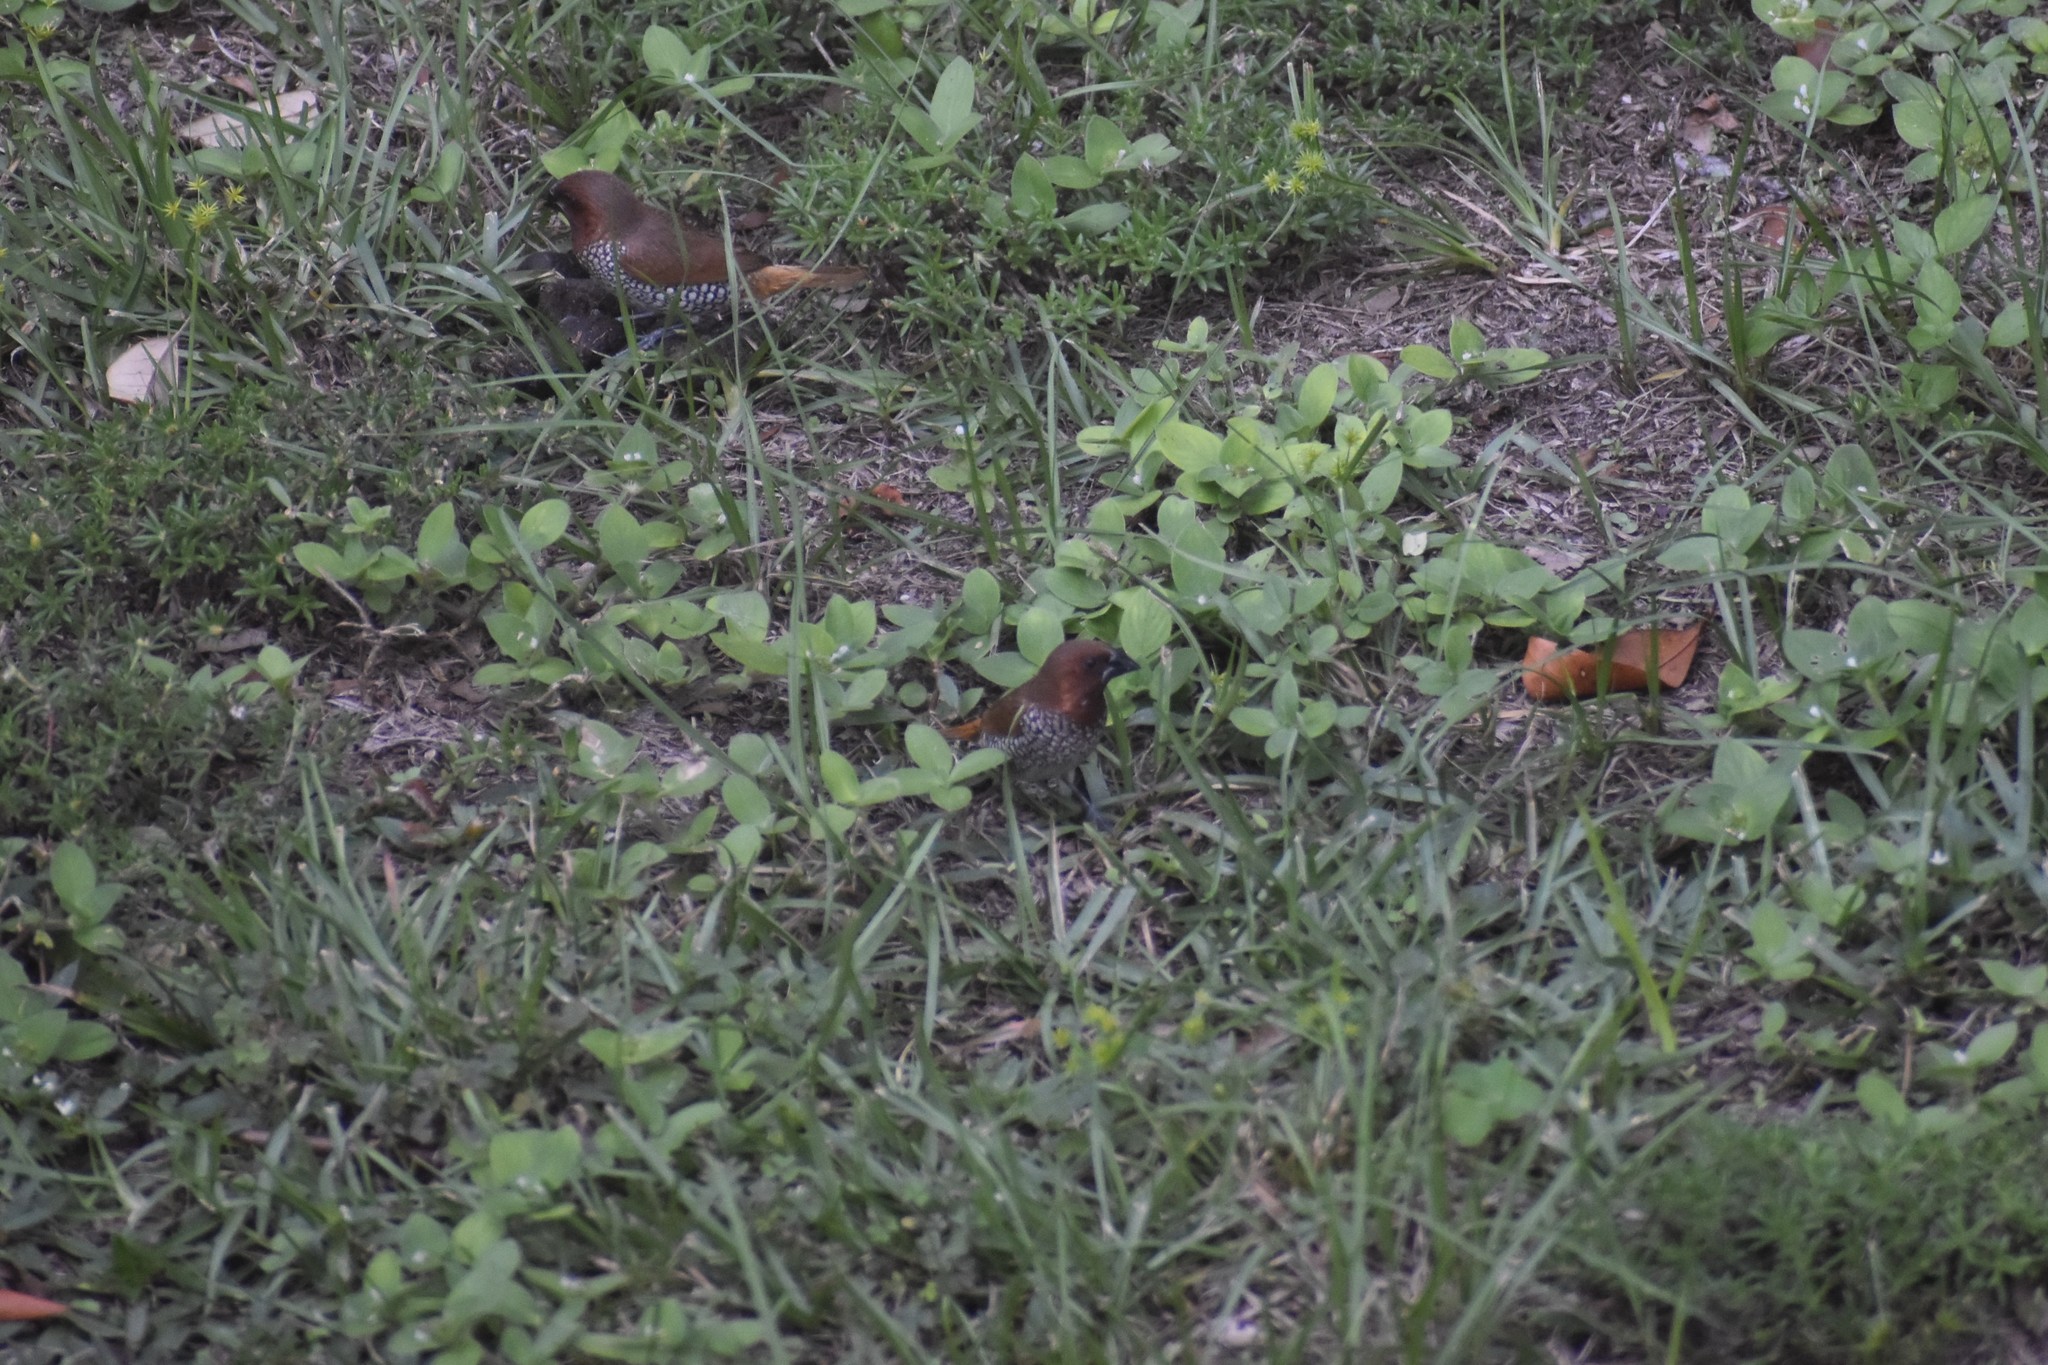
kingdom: Animalia
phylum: Chordata
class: Aves
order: Passeriformes
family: Estrildidae
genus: Lonchura
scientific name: Lonchura punctulata
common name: Scaly-breasted munia
